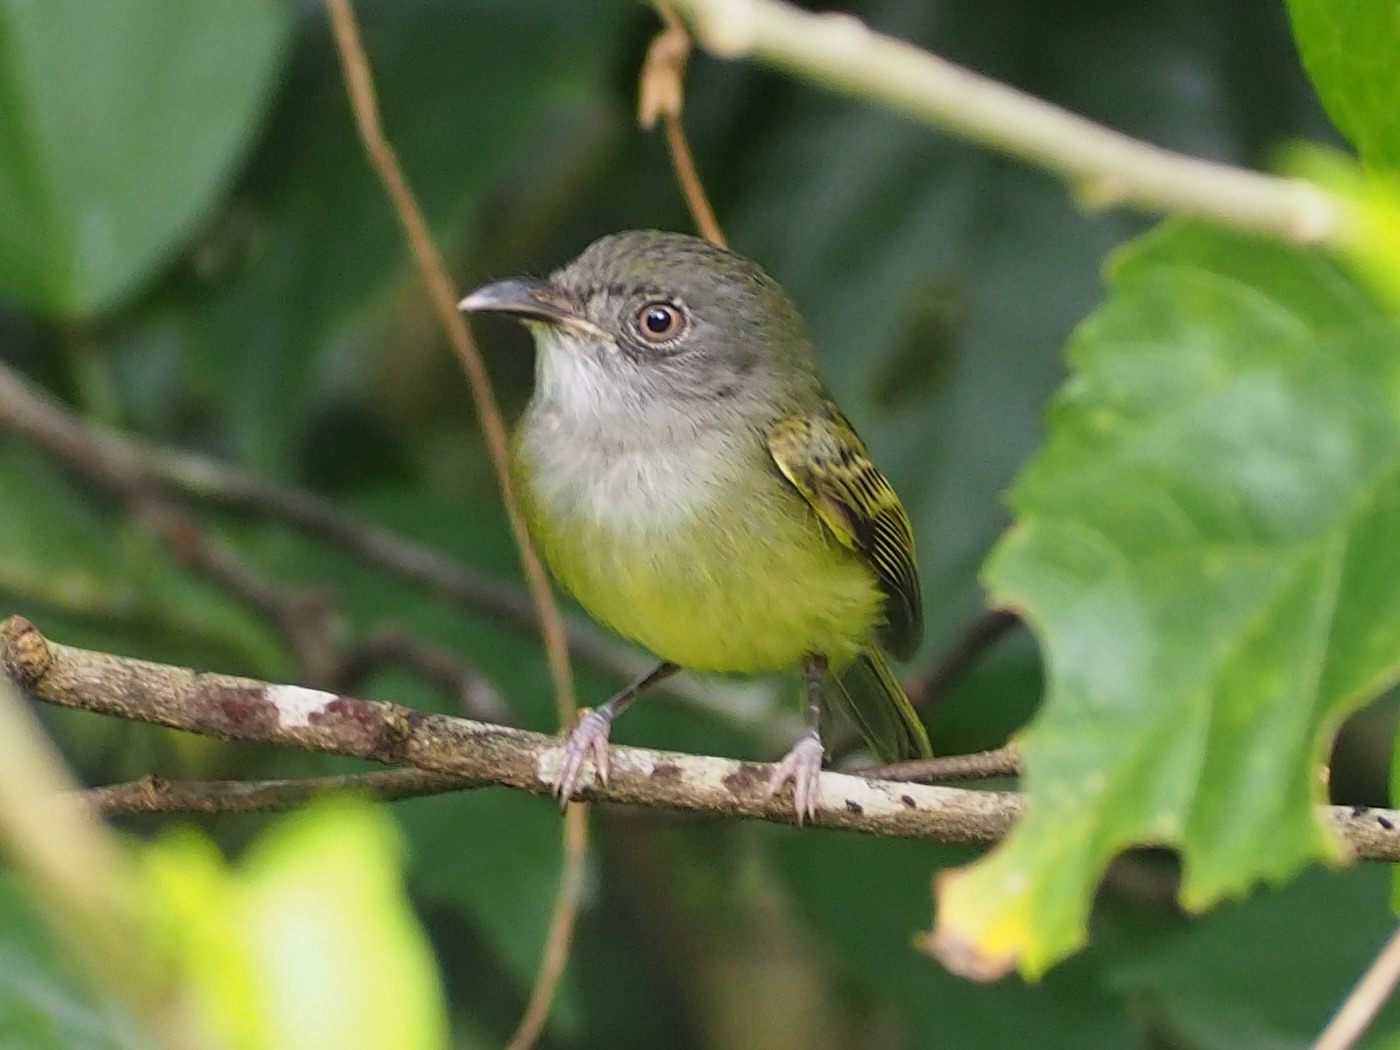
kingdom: Animalia
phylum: Chordata
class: Aves
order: Passeriformes
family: Tyrannidae
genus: Oncostoma
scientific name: Oncostoma cinereigulare
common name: Northern bentbill
